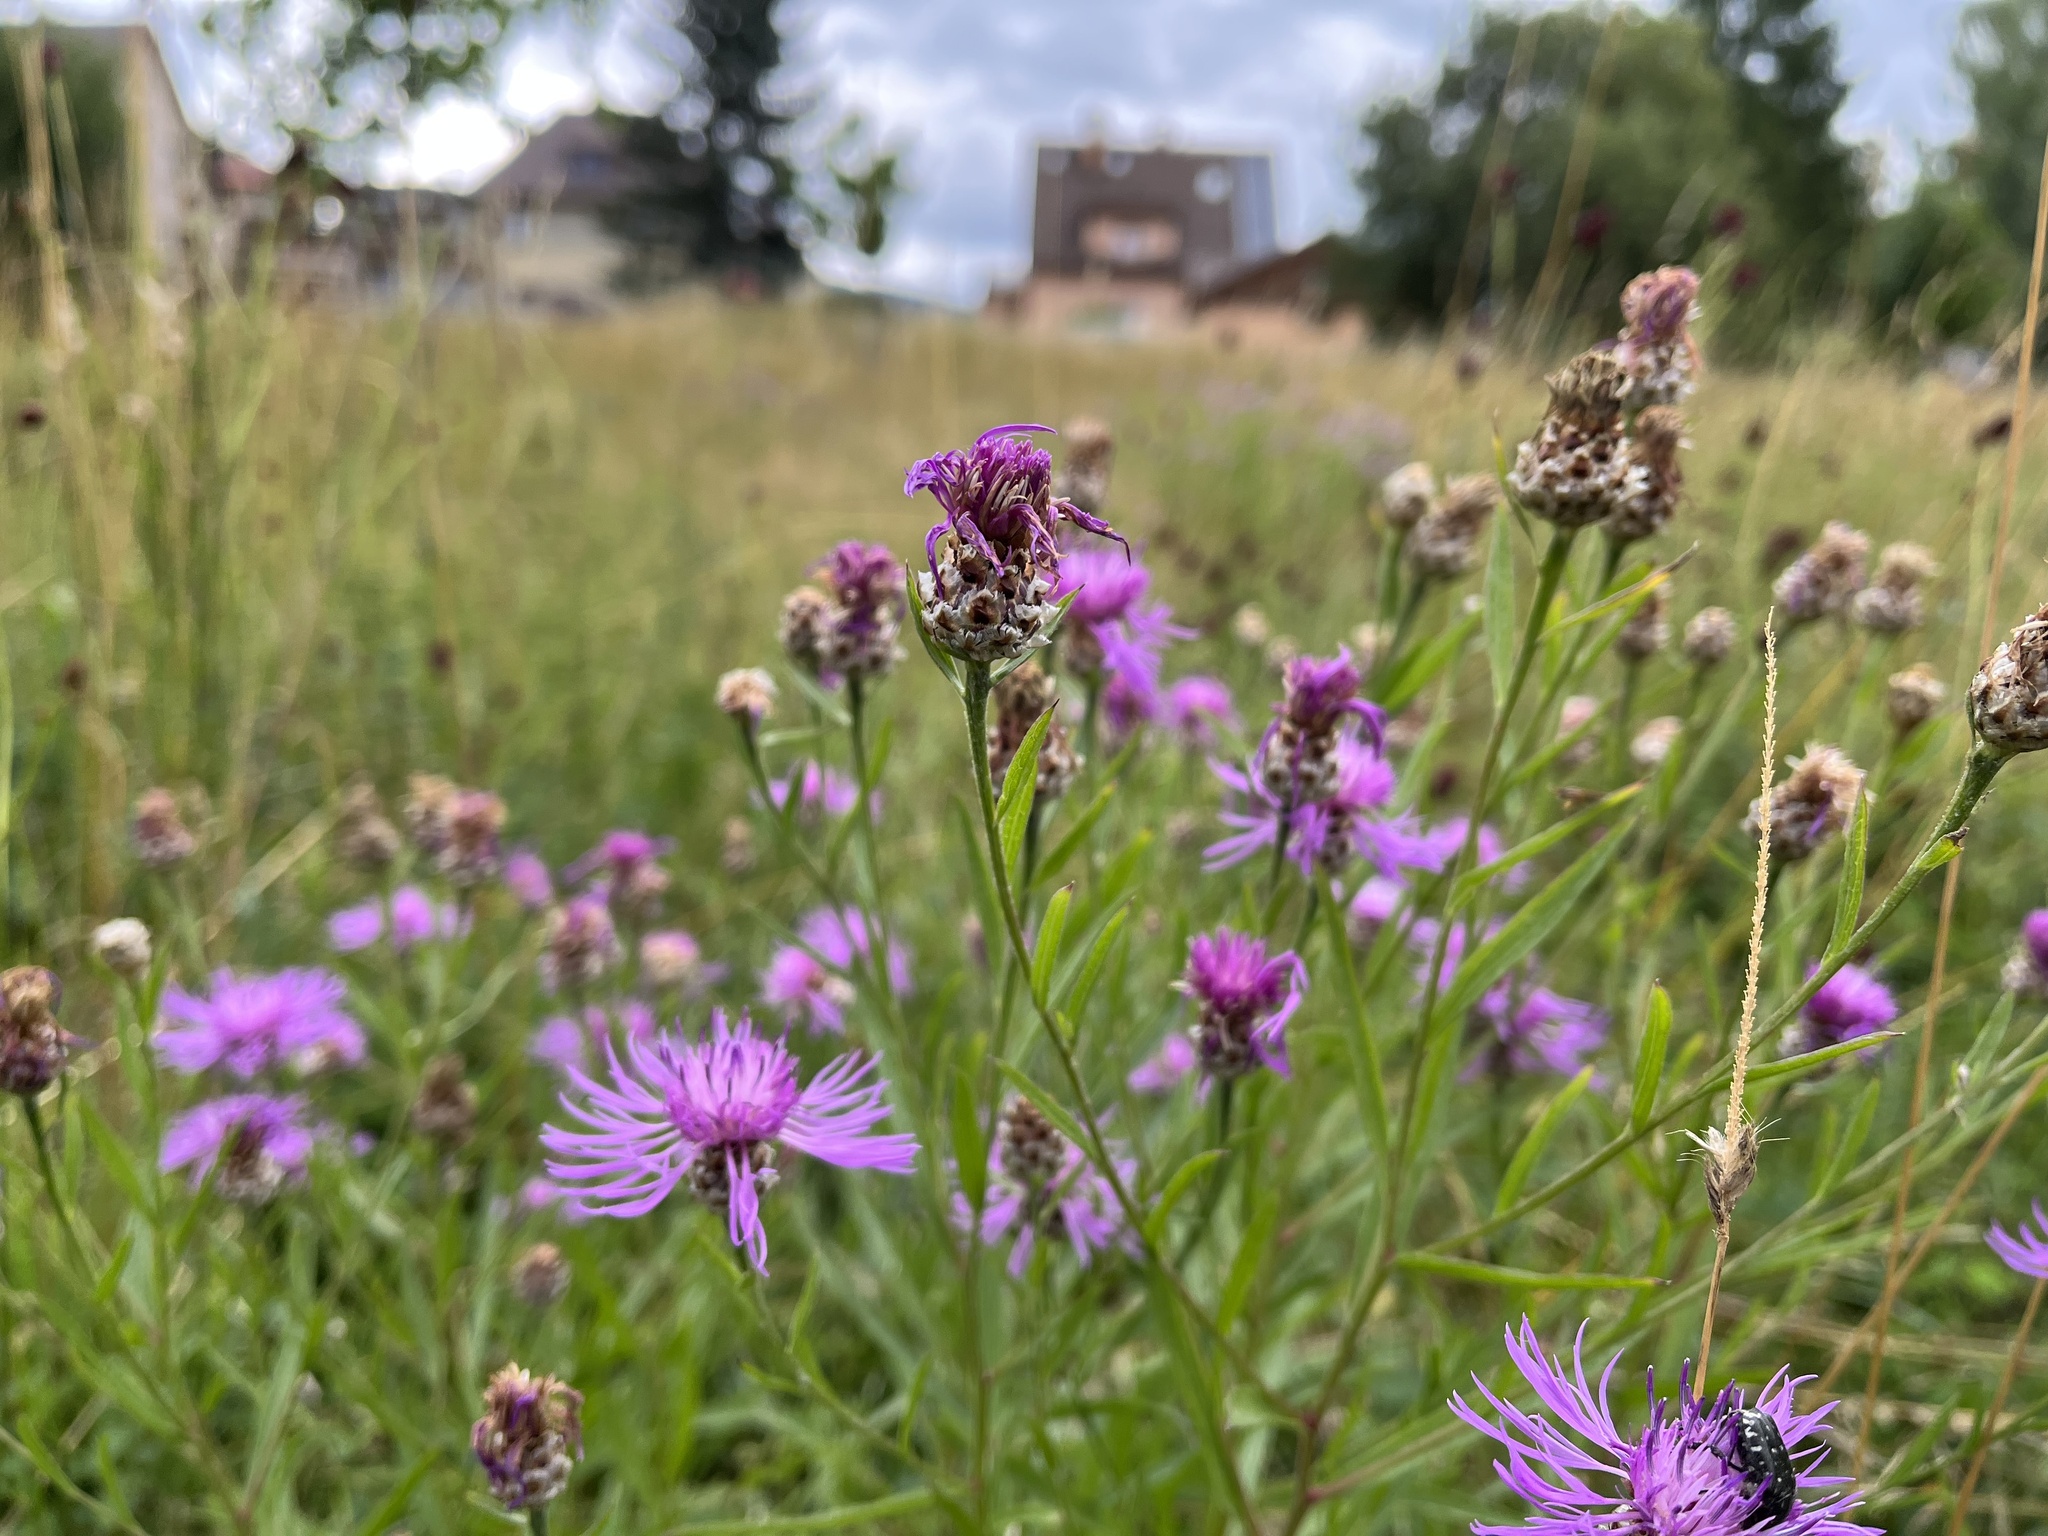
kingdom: Plantae
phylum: Tracheophyta
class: Magnoliopsida
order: Asterales
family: Asteraceae
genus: Centaurea
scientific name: Centaurea jacea
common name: Brown knapweed
